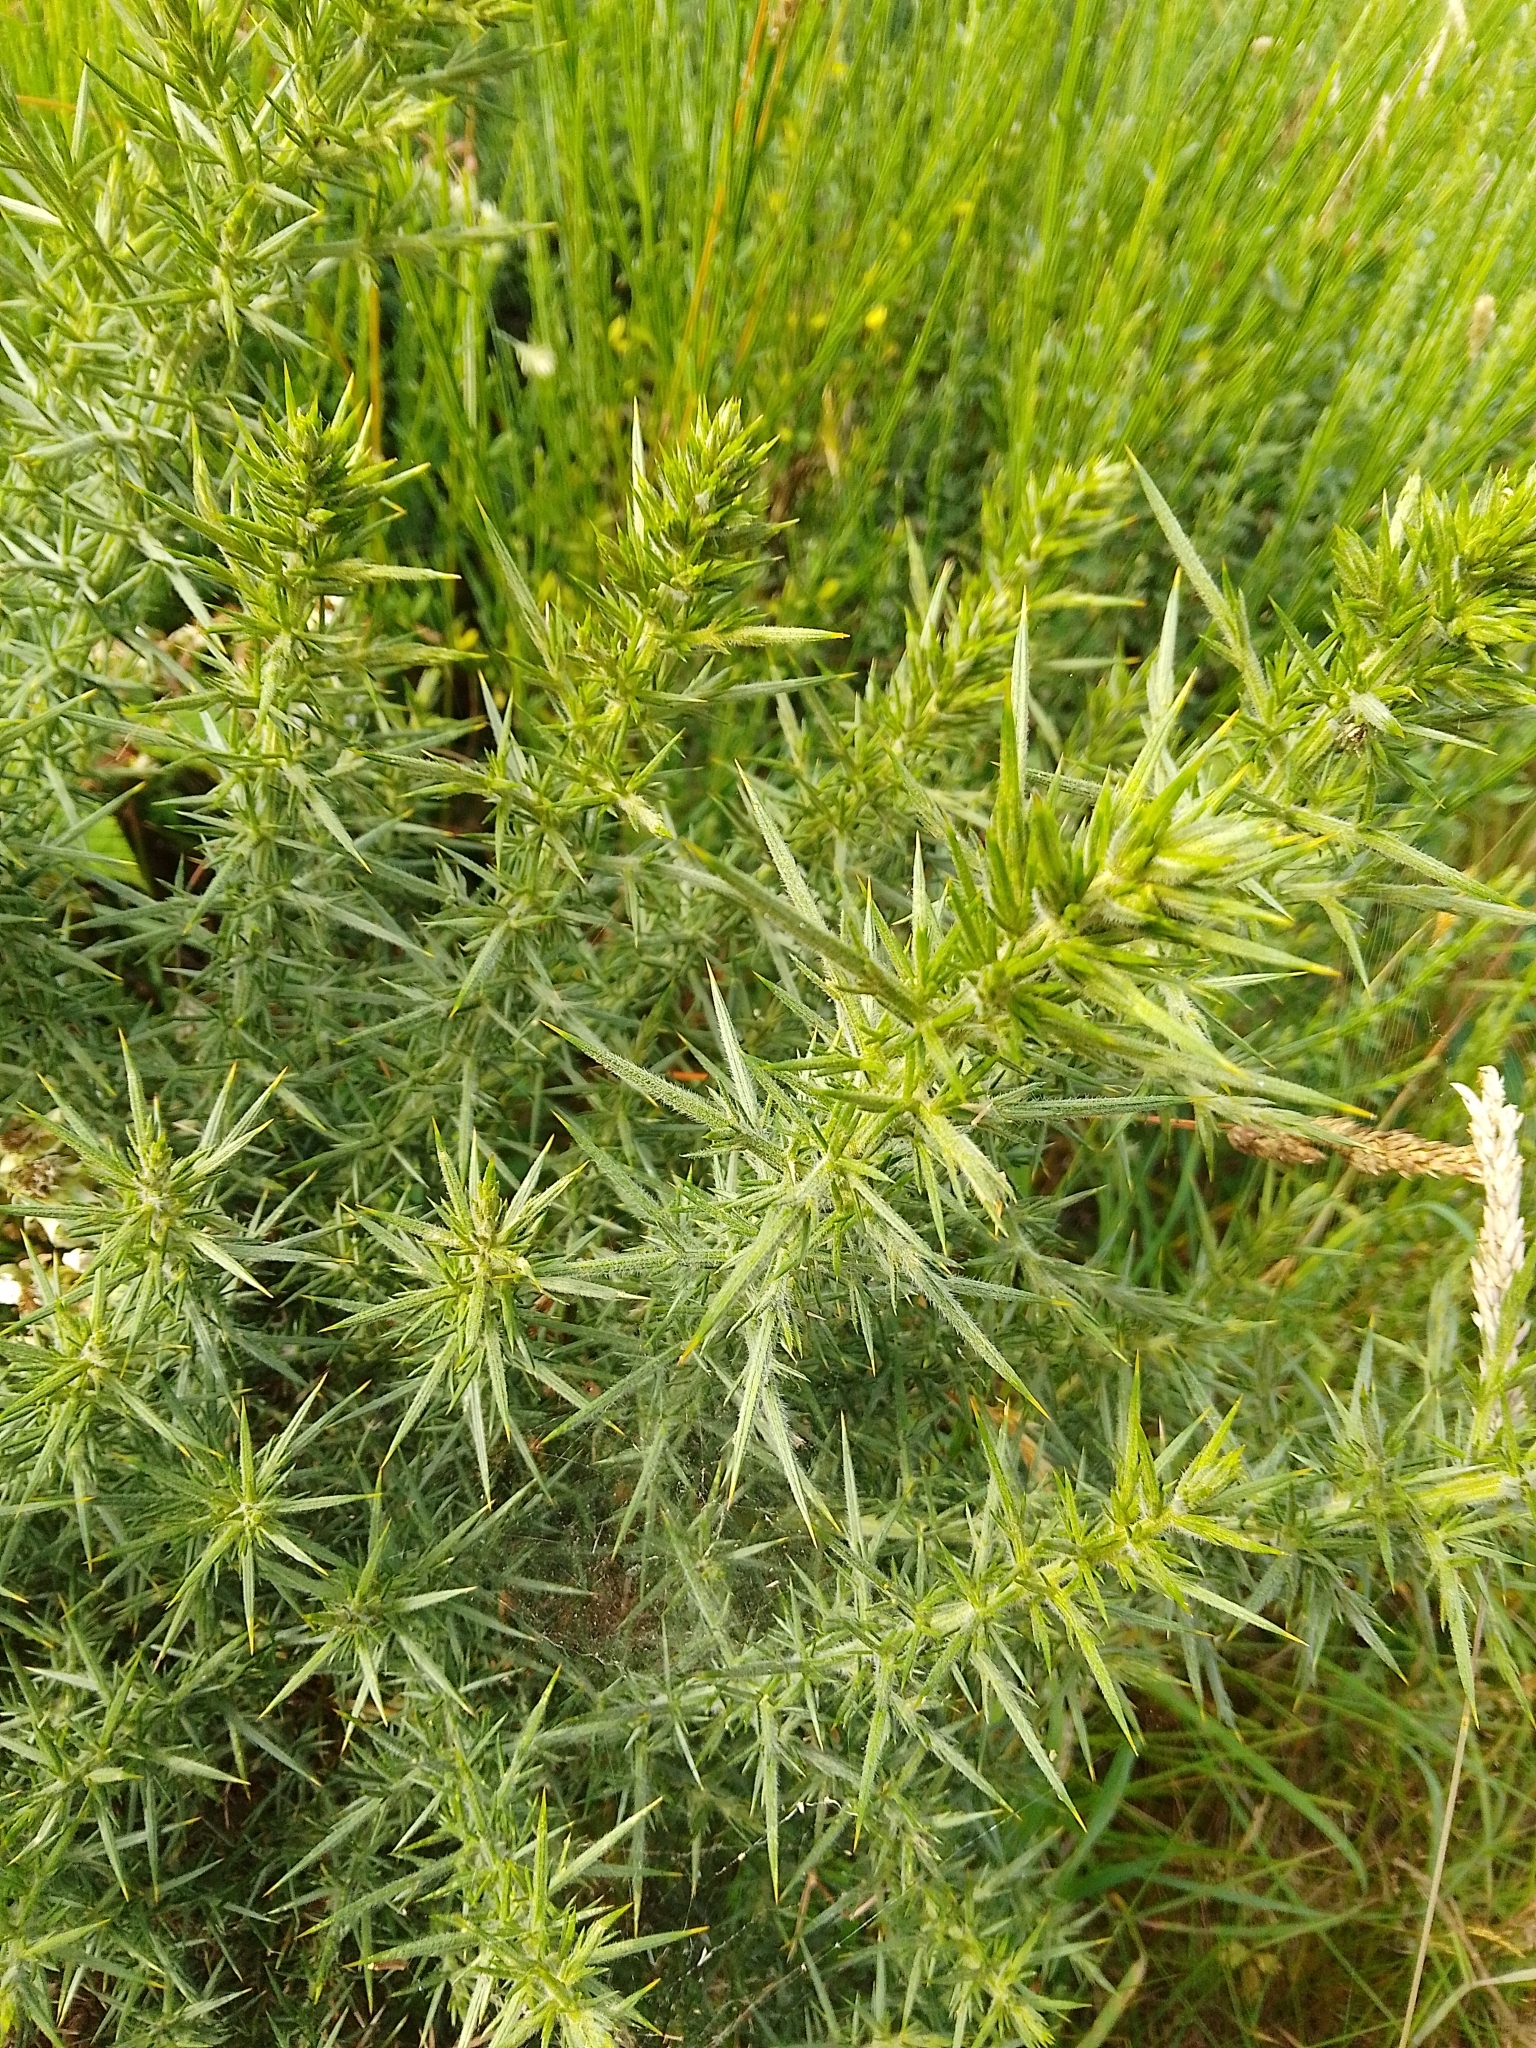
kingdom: Plantae
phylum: Tracheophyta
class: Magnoliopsida
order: Fabales
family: Fabaceae
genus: Ulex
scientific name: Ulex europaeus
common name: Common gorse
